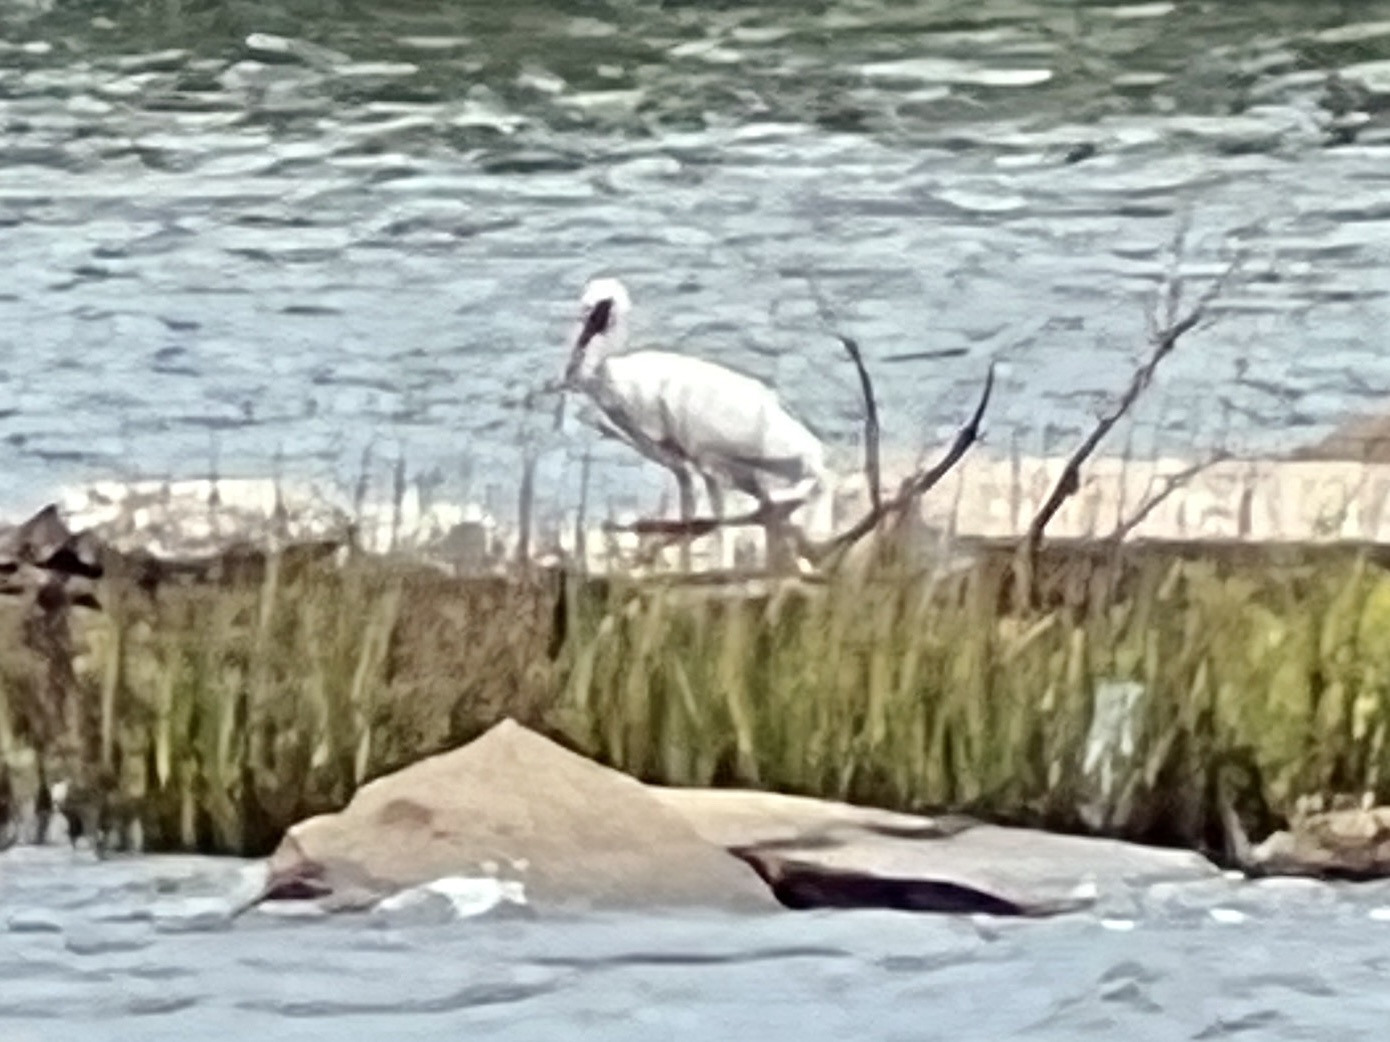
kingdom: Animalia
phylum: Chordata
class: Aves
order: Pelecaniformes
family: Threskiornithidae
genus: Eudocimus
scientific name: Eudocimus albus
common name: White ibis
